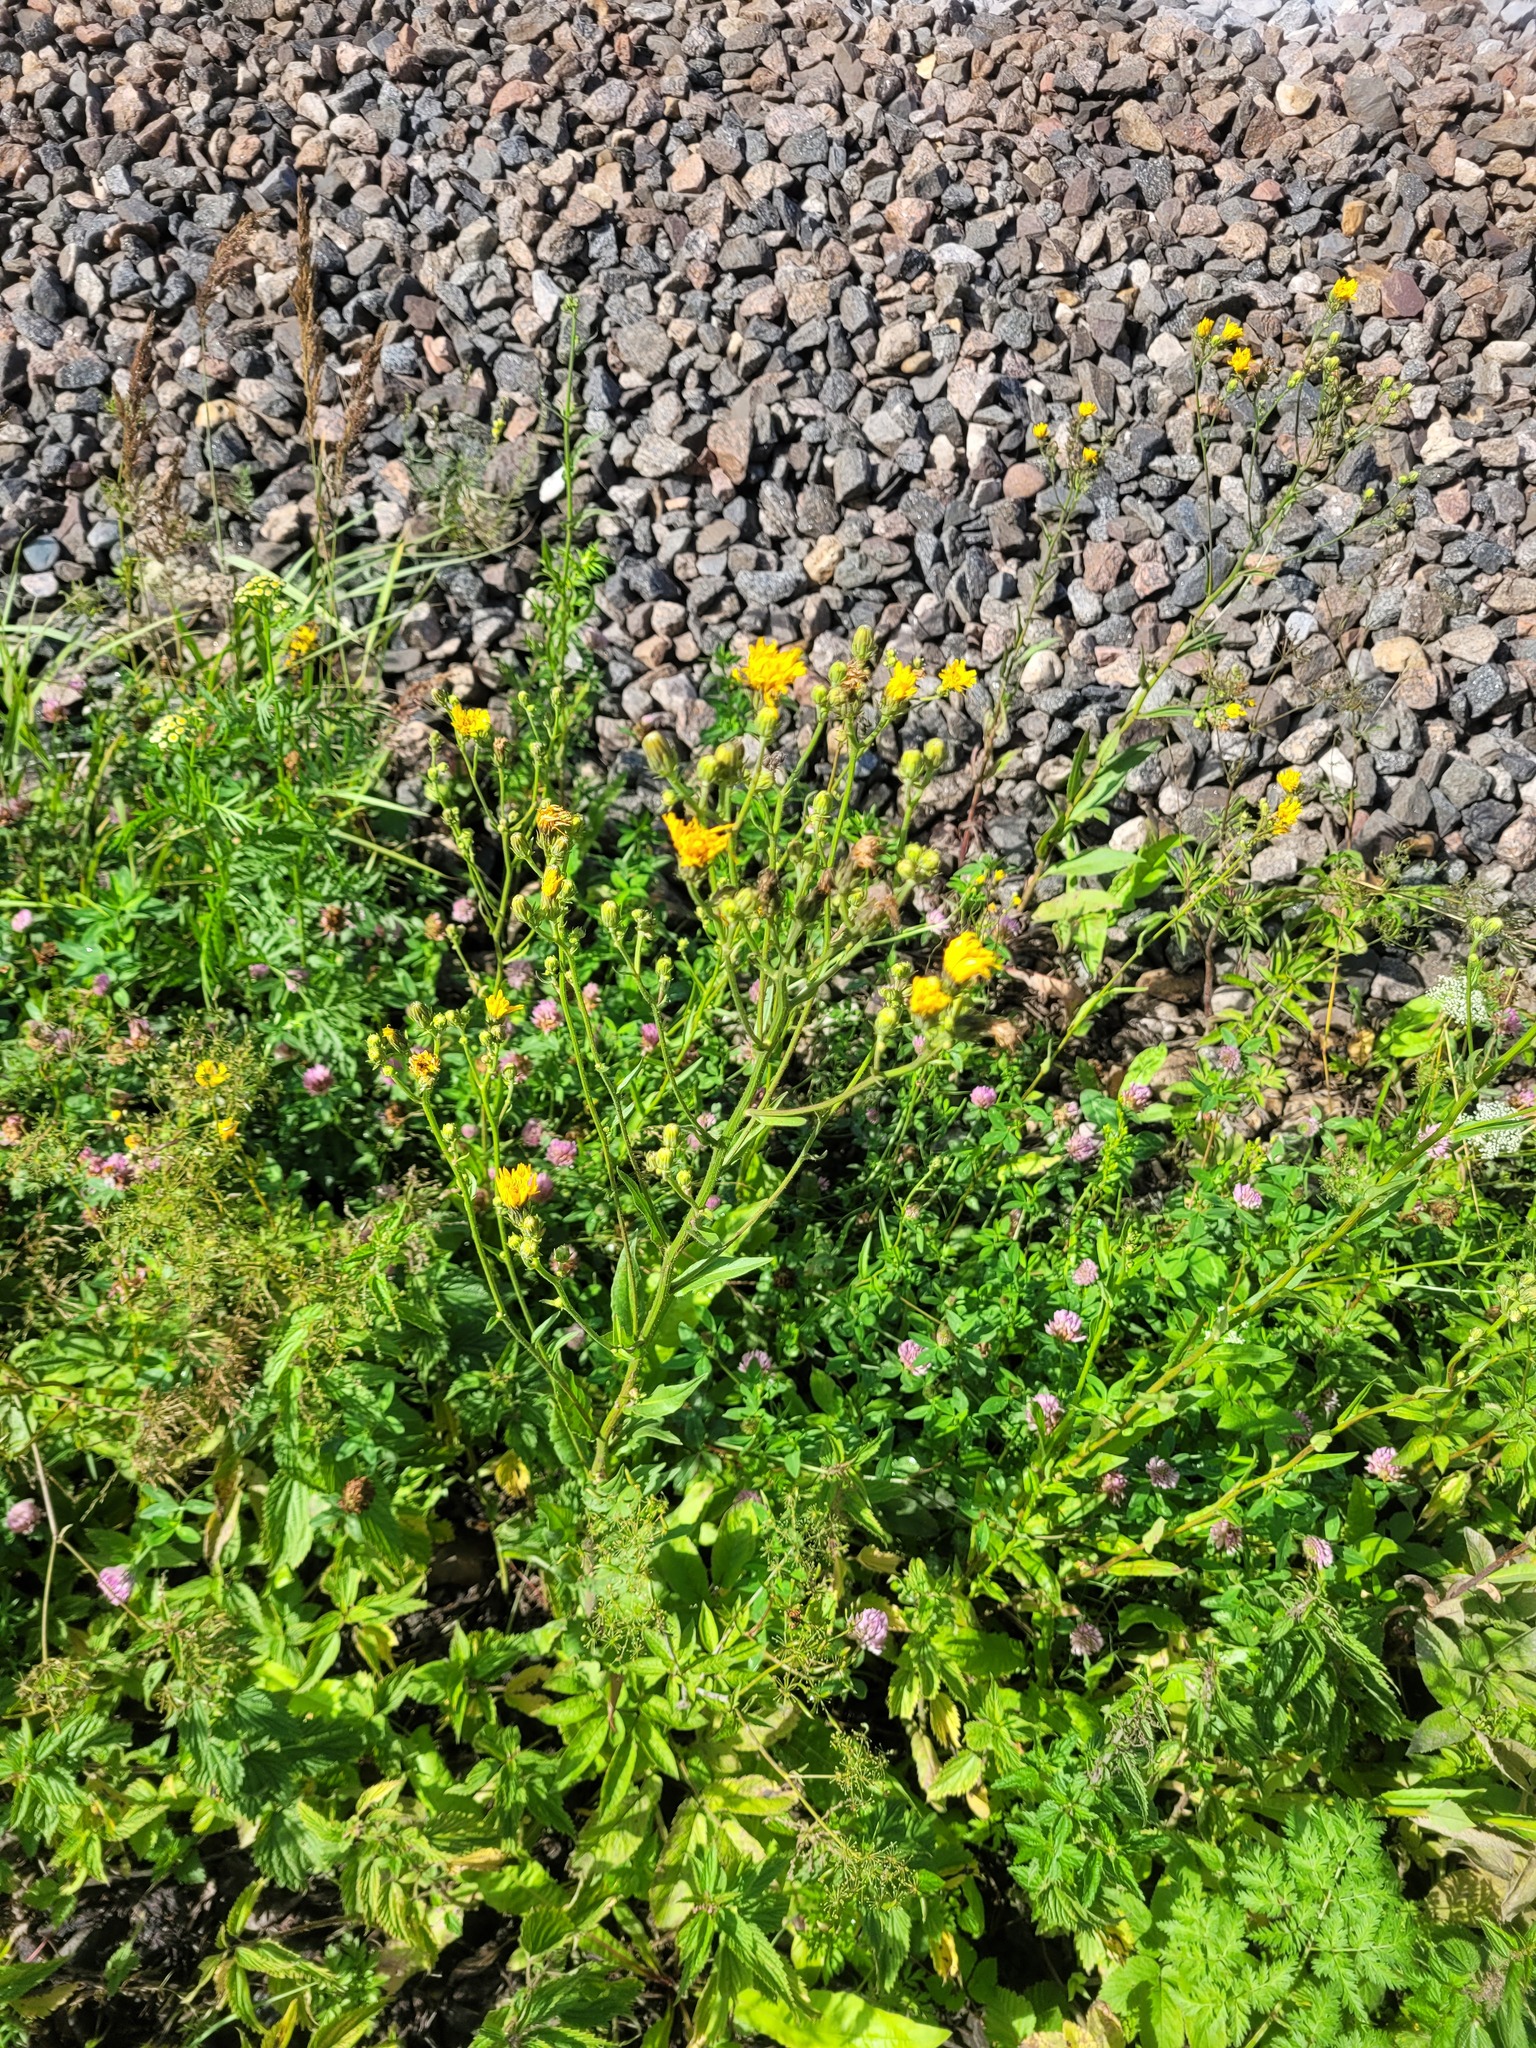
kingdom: Plantae
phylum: Tracheophyta
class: Magnoliopsida
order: Asterales
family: Asteraceae
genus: Picris
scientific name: Picris hieracioides
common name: Hawkweed oxtongue
